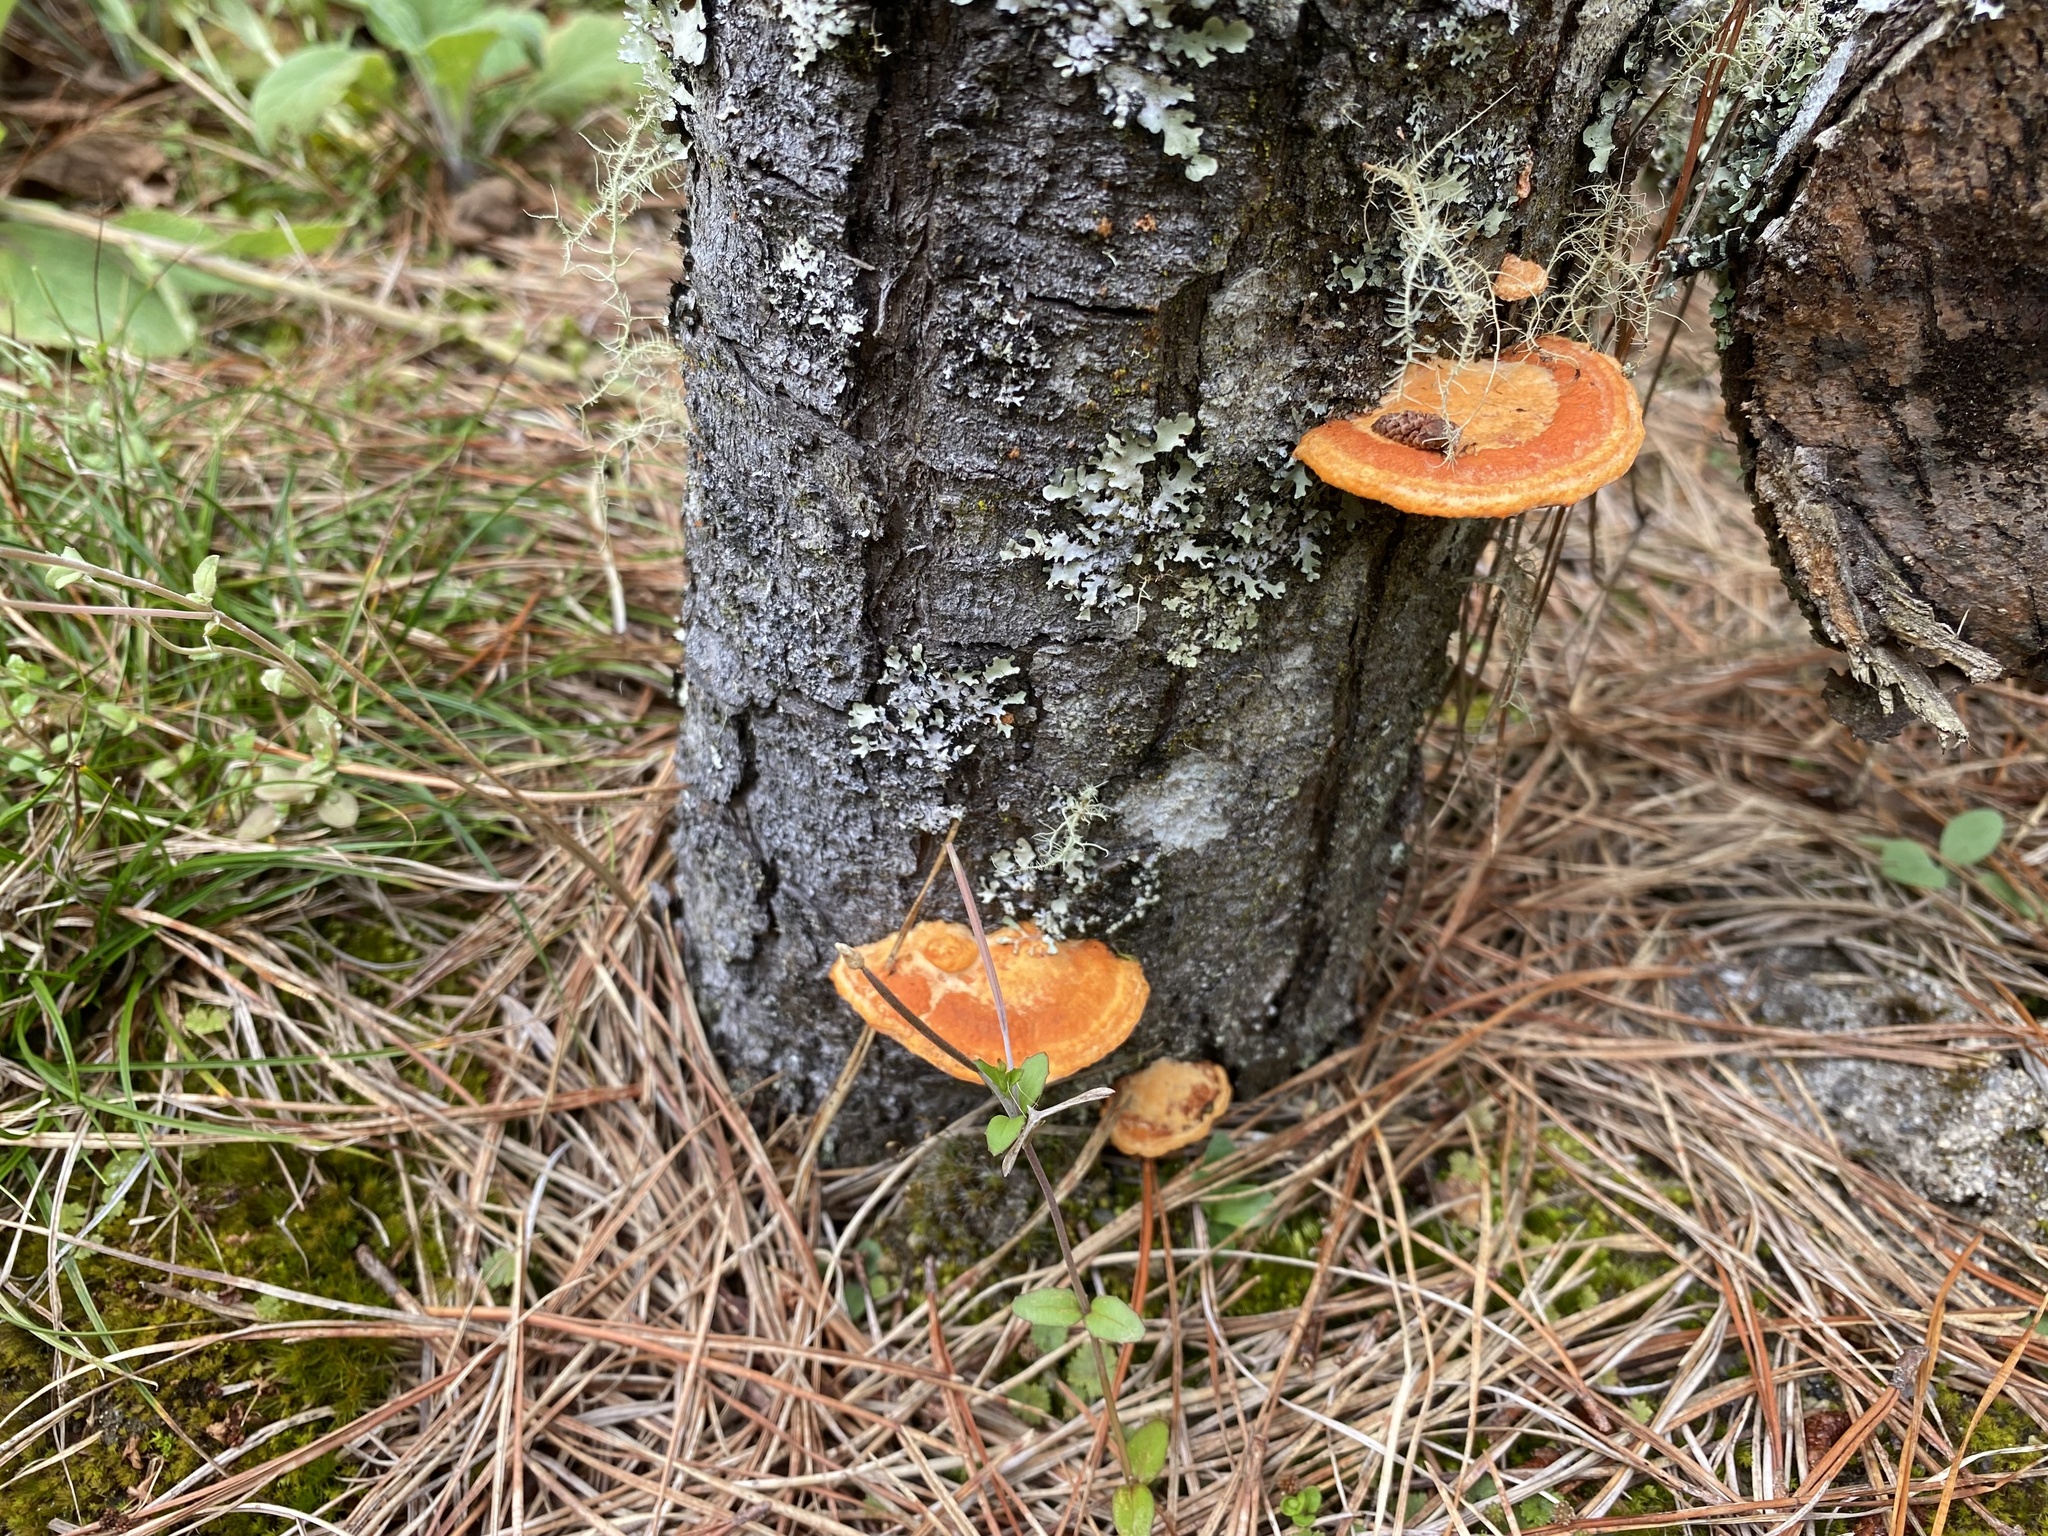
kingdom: Fungi
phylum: Basidiomycota
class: Agaricomycetes
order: Polyporales
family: Polyporaceae
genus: Trametes
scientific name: Trametes coccinea
